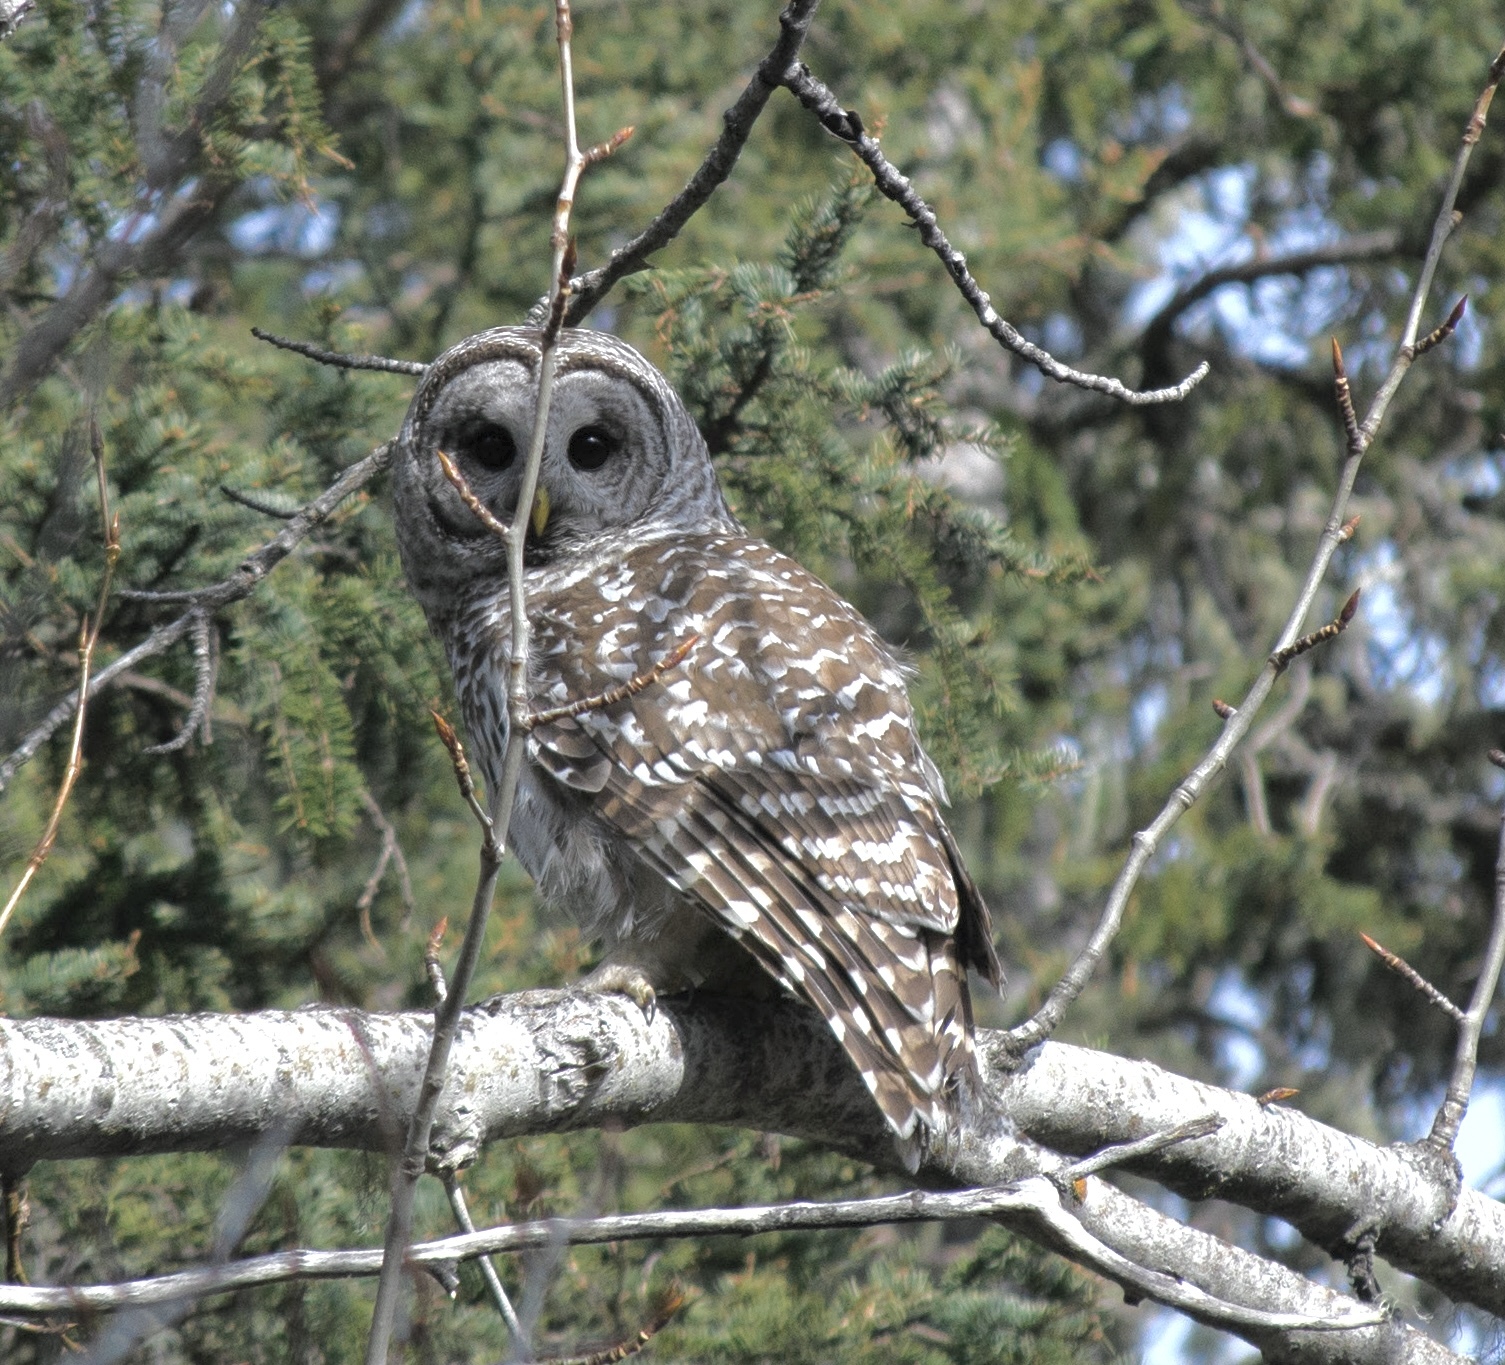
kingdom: Animalia
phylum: Chordata
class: Aves
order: Strigiformes
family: Strigidae
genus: Strix
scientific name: Strix varia
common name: Barred owl
